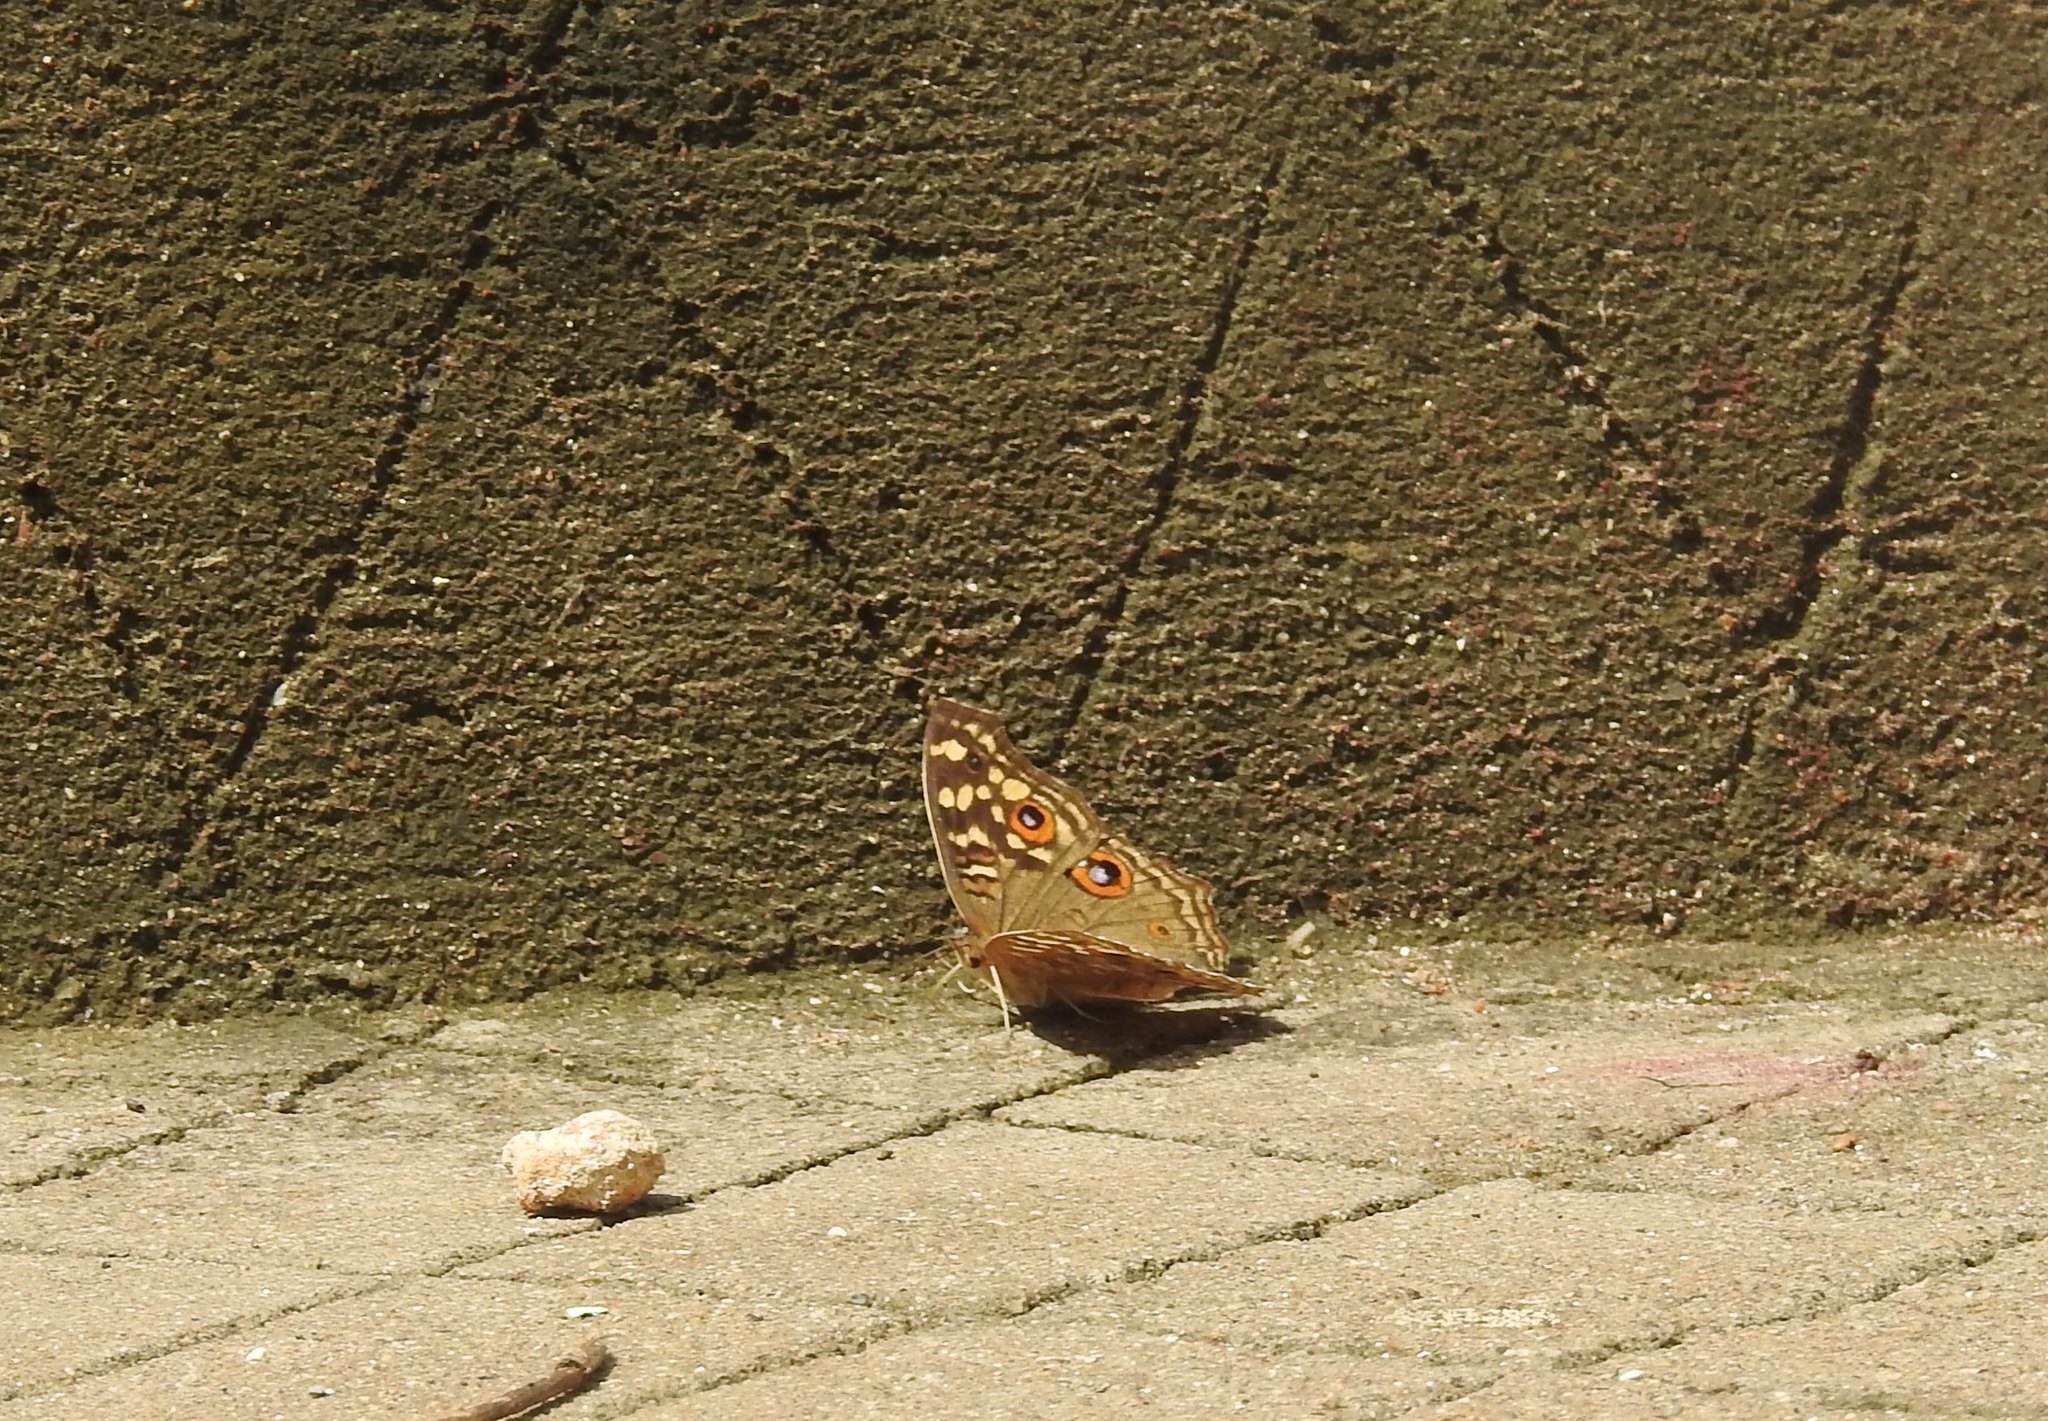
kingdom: Animalia
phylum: Arthropoda
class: Insecta
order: Lepidoptera
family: Nymphalidae
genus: Junonia
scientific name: Junonia lemonias
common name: Lemon pansy
